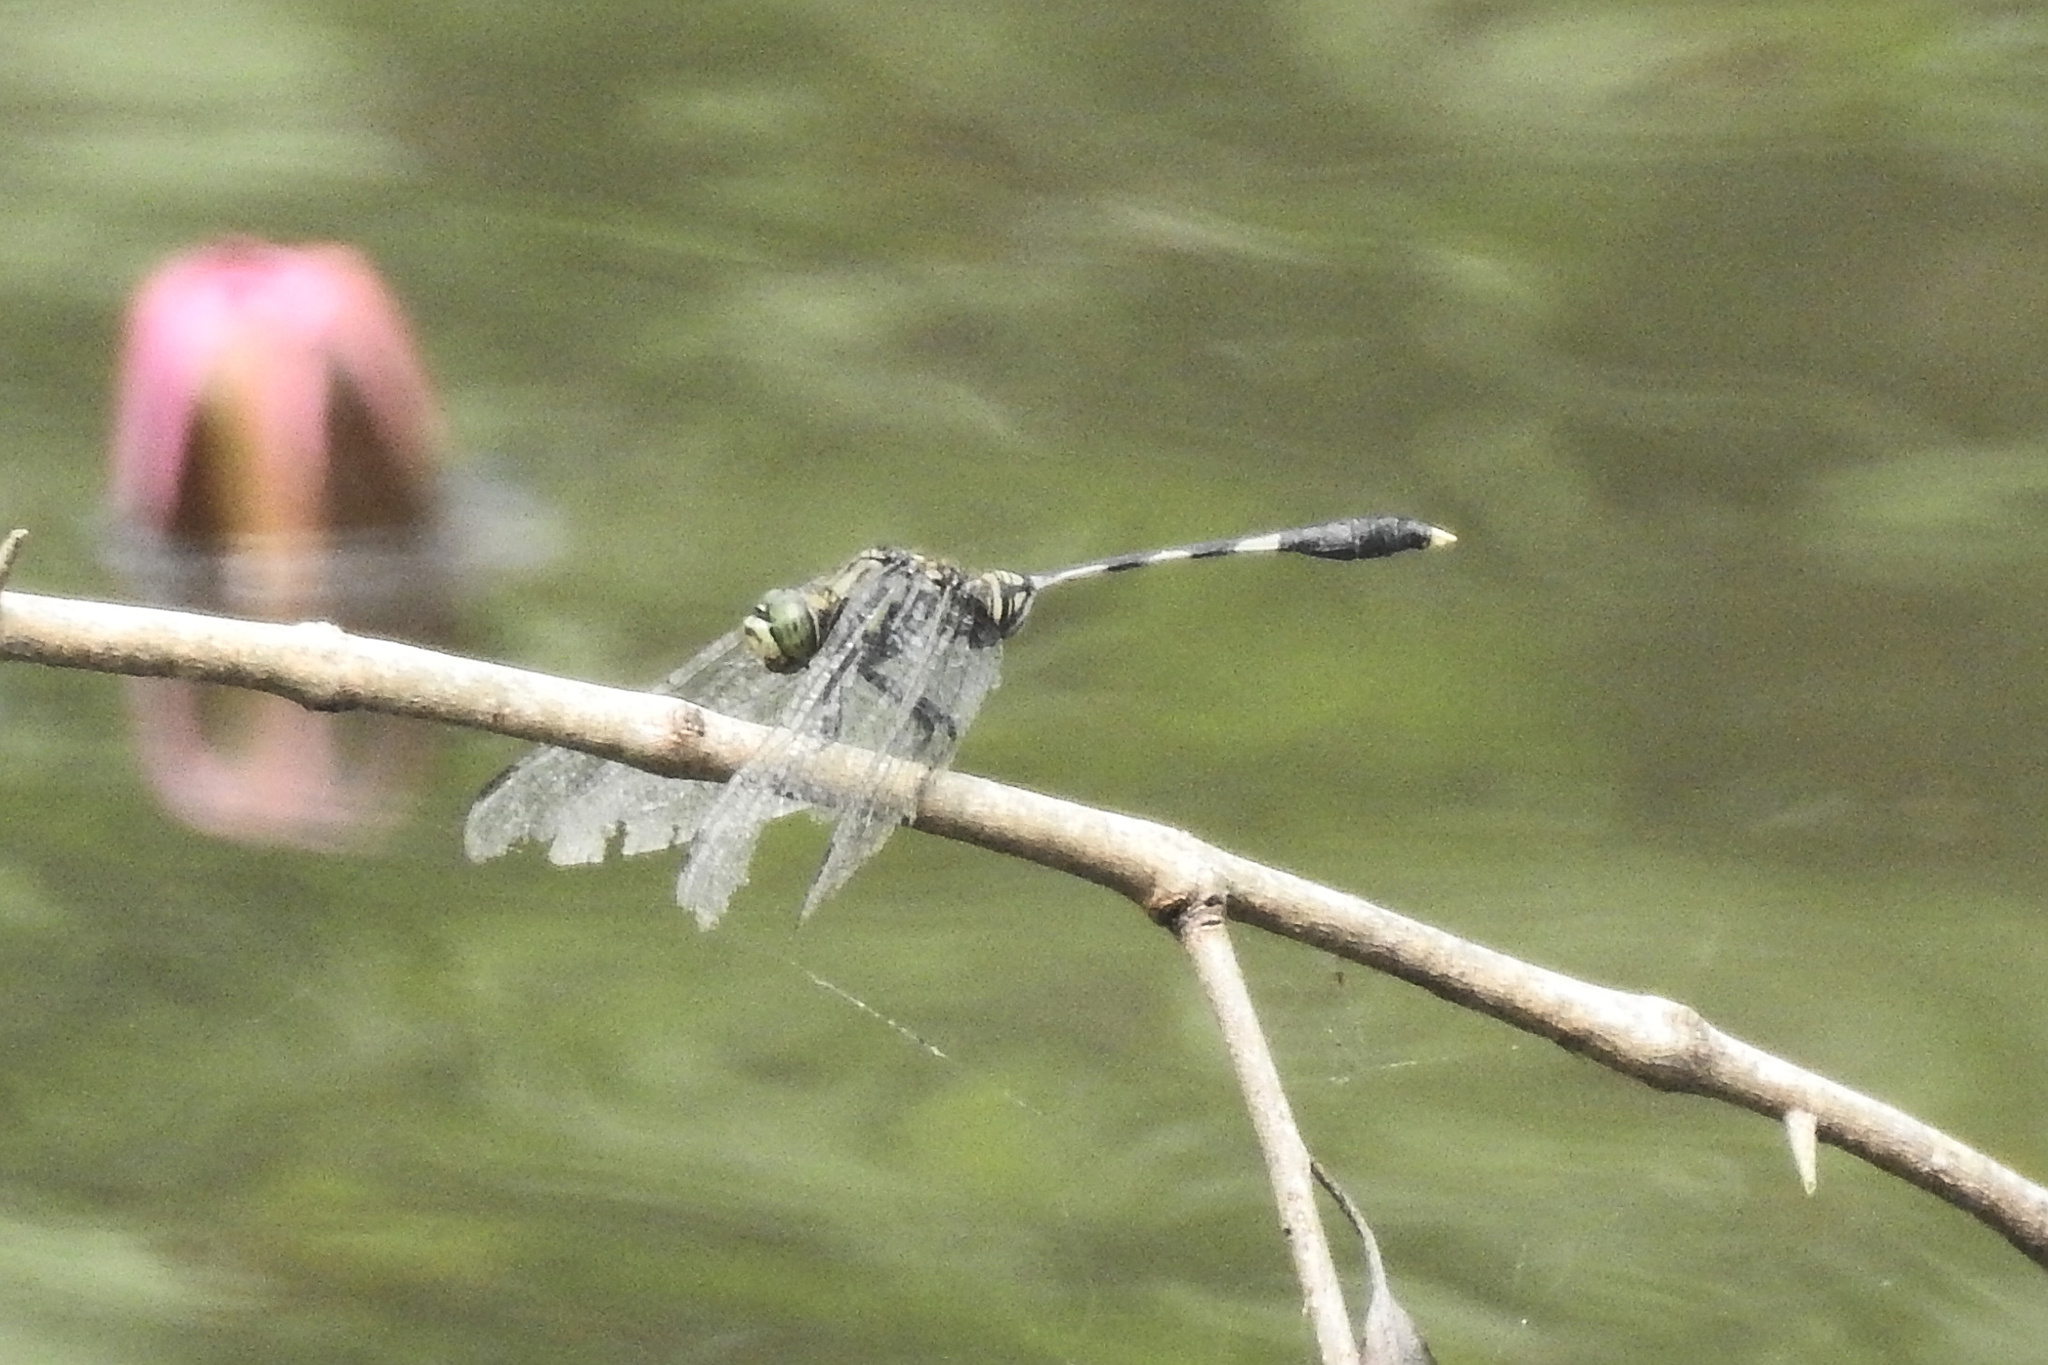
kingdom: Animalia
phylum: Arthropoda
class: Insecta
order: Odonata
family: Libellulidae
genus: Orthetrum
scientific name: Orthetrum sabina
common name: Slender skimmer
